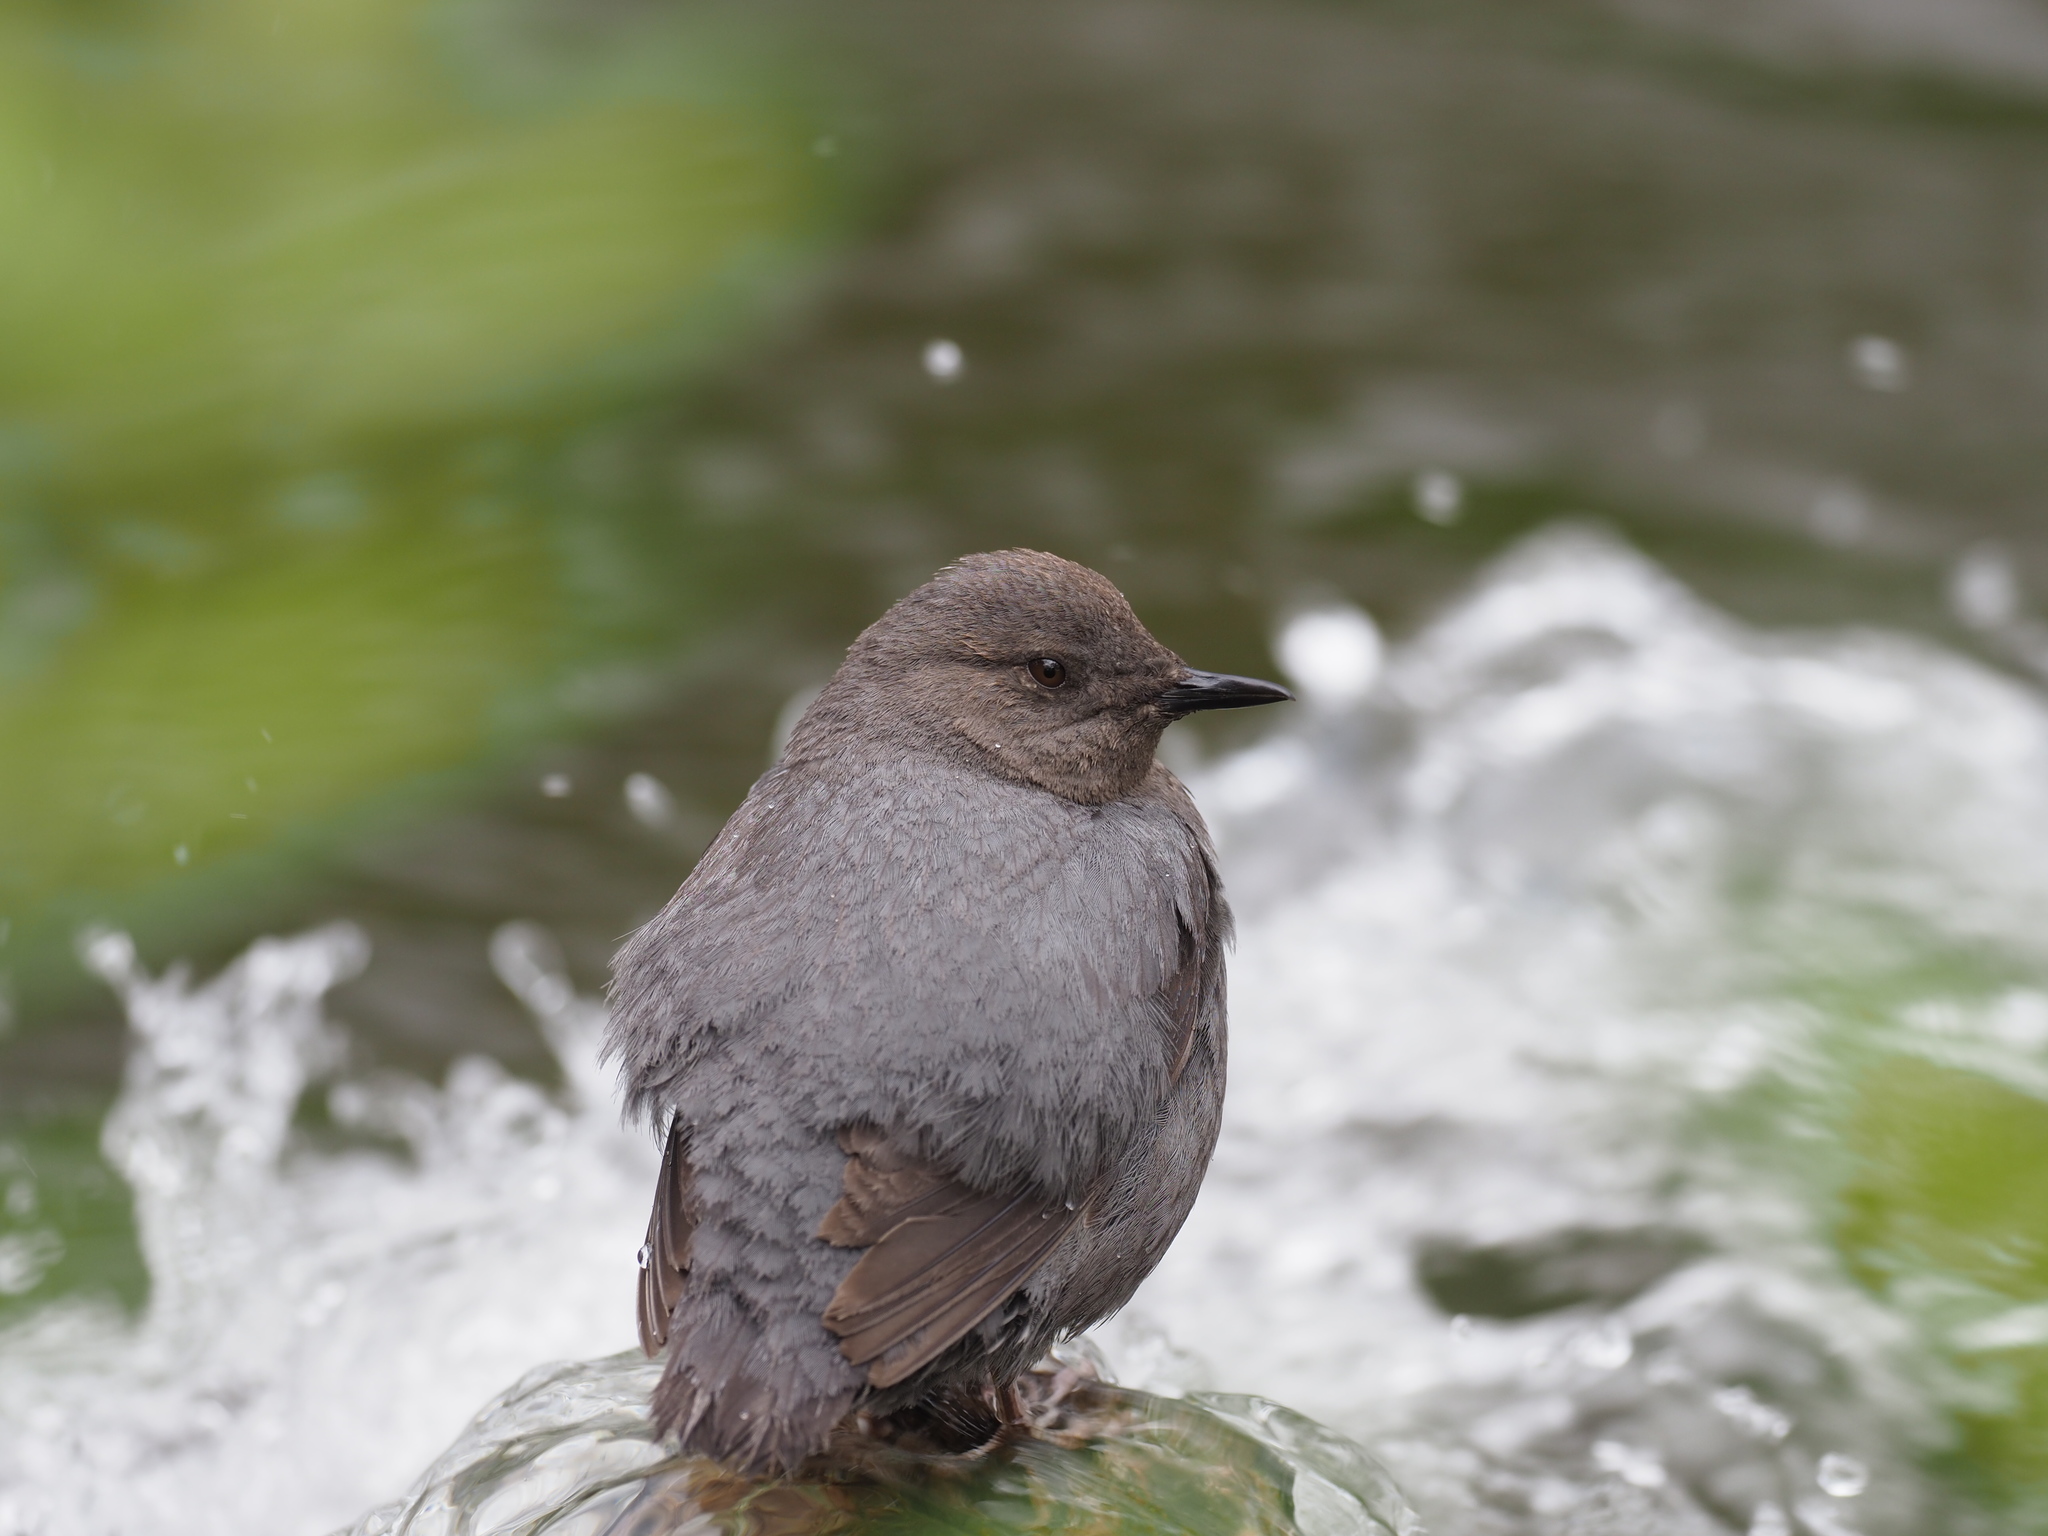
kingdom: Animalia
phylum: Chordata
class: Aves
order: Passeriformes
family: Cinclidae
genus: Cinclus
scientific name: Cinclus mexicanus
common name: American dipper
